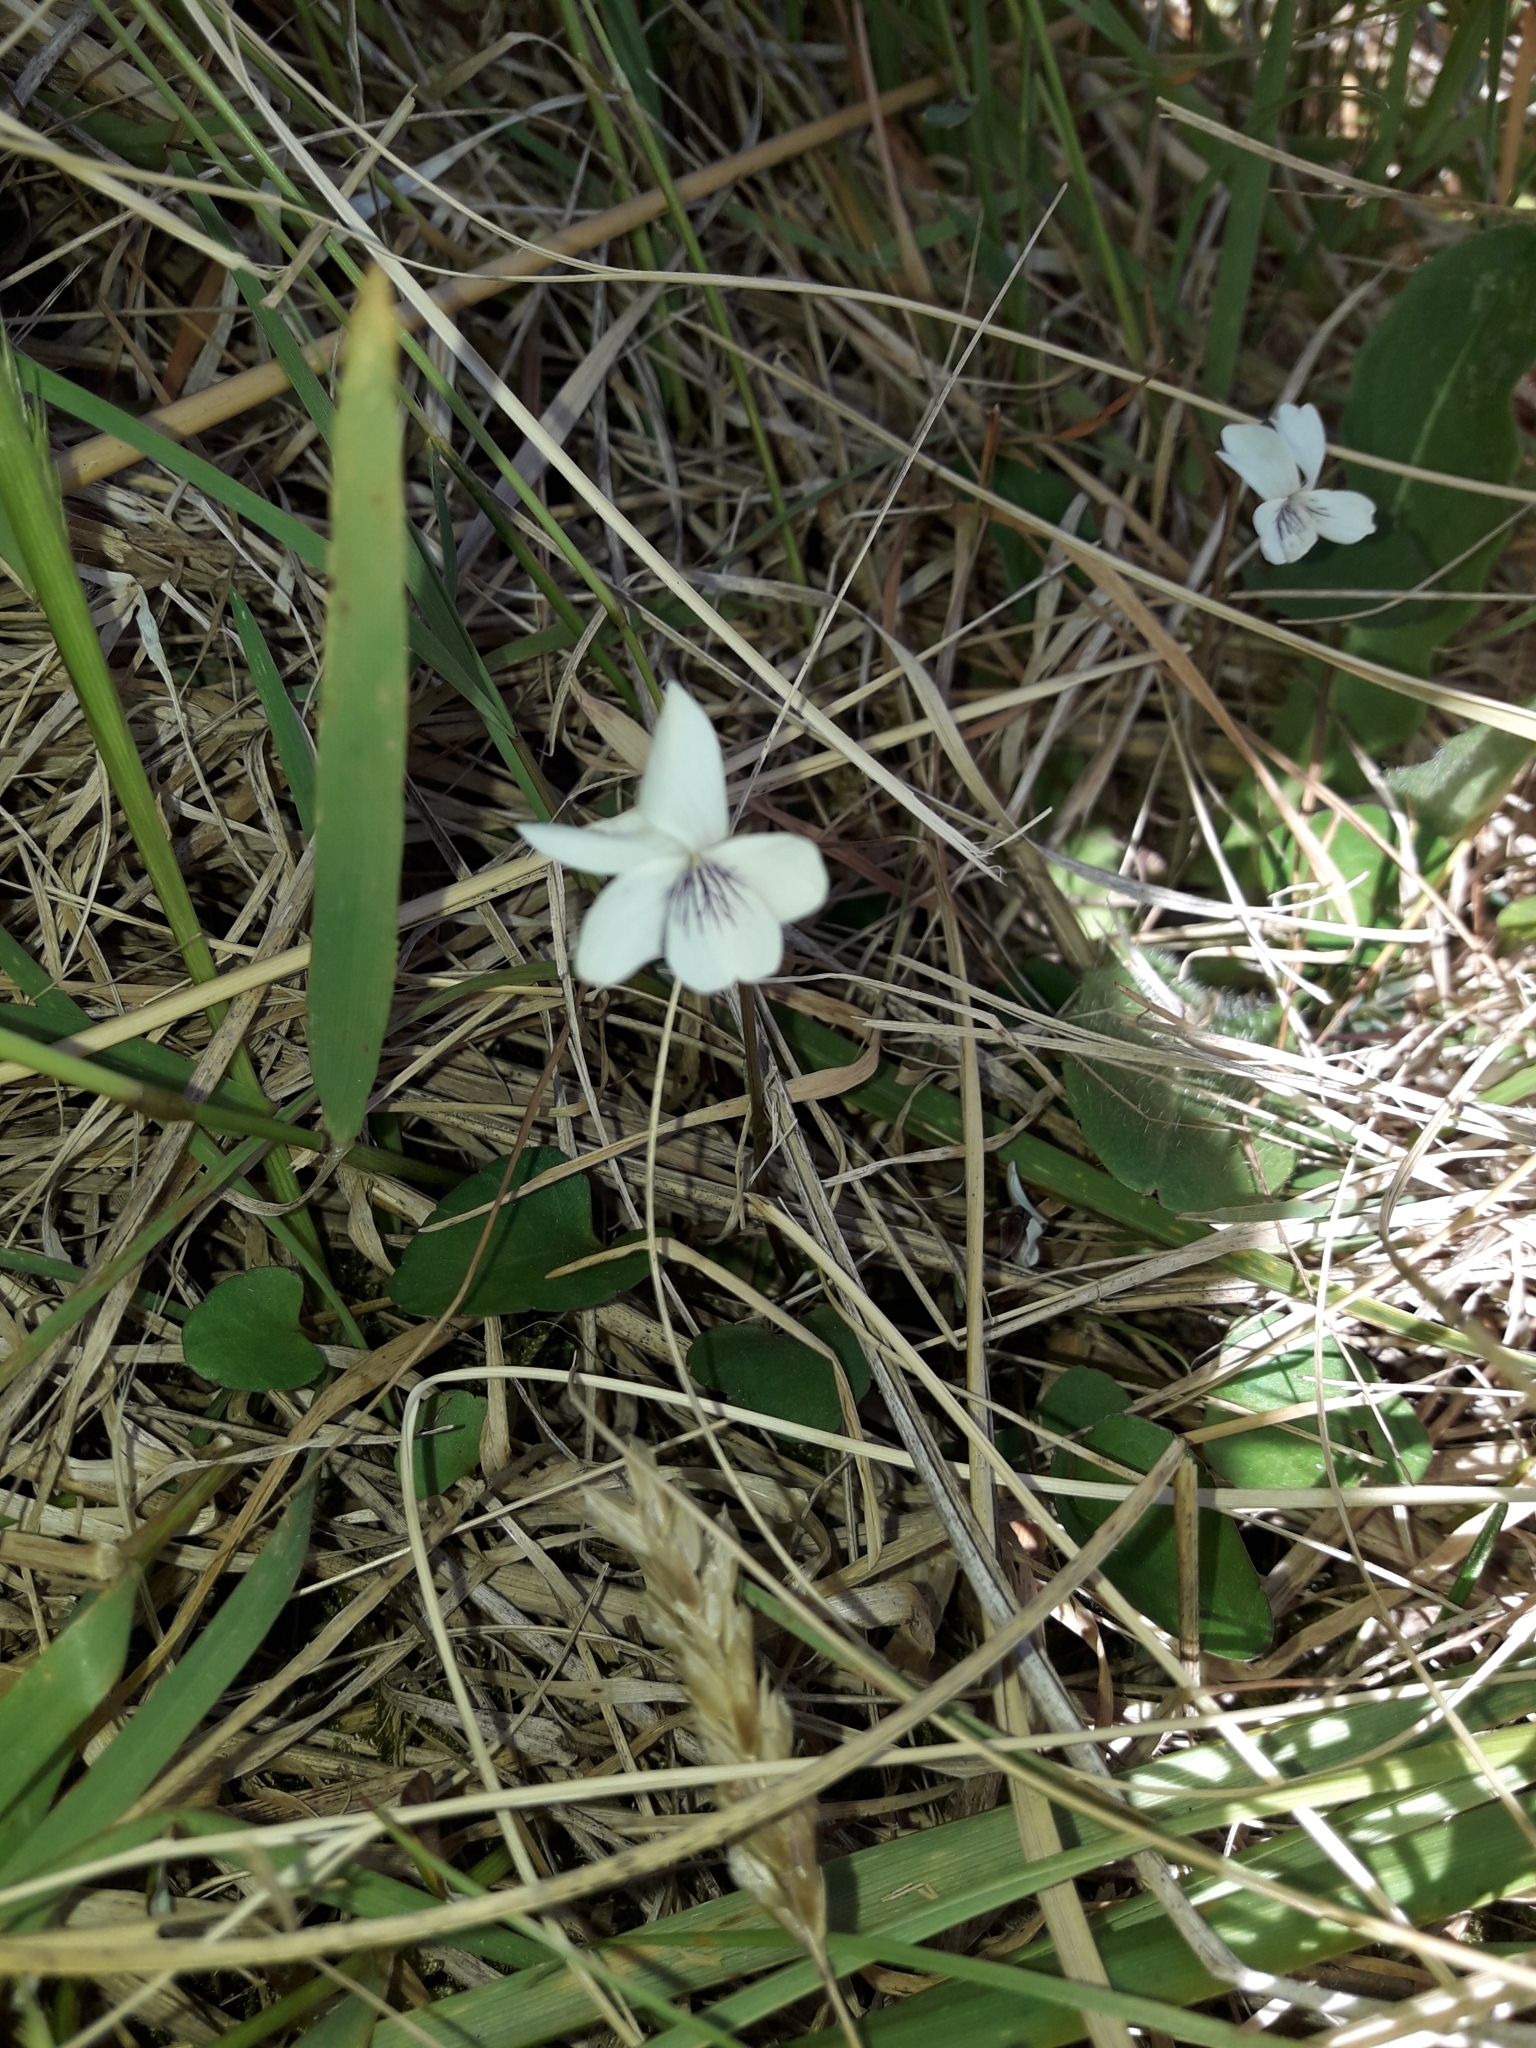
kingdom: Plantae
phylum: Tracheophyta
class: Magnoliopsida
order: Malpighiales
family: Violaceae
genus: Viola
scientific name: Viola cunninghamii
